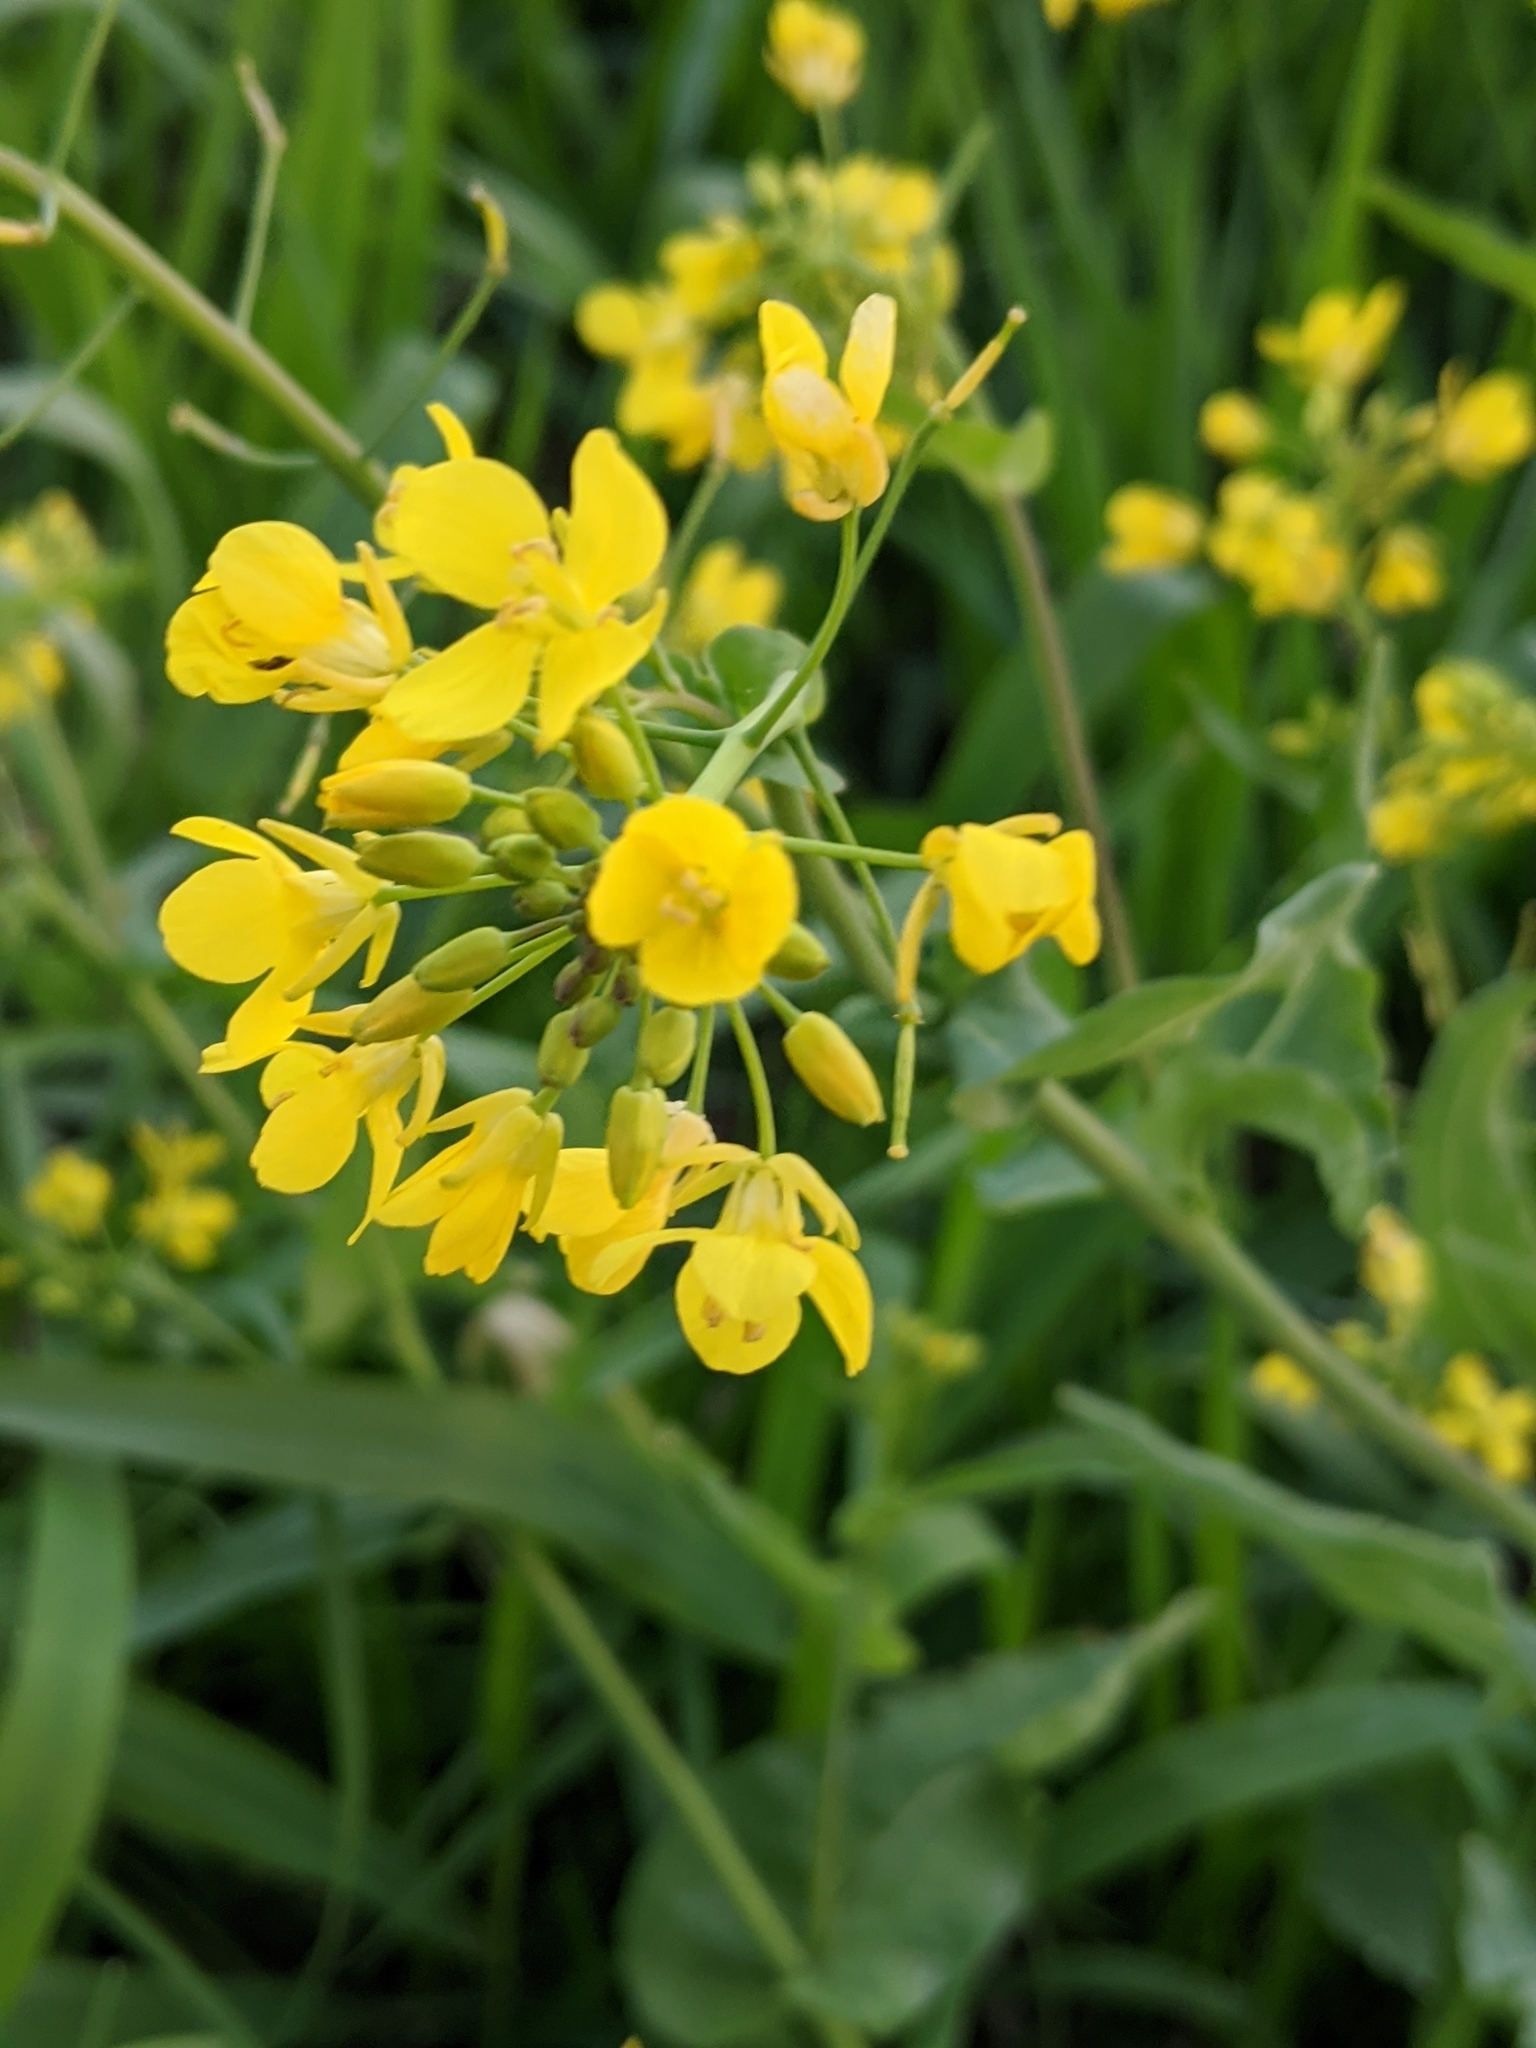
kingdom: Plantae
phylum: Tracheophyta
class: Magnoliopsida
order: Brassicales
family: Brassicaceae
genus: Brassica
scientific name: Brassica rapa
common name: Field mustard
